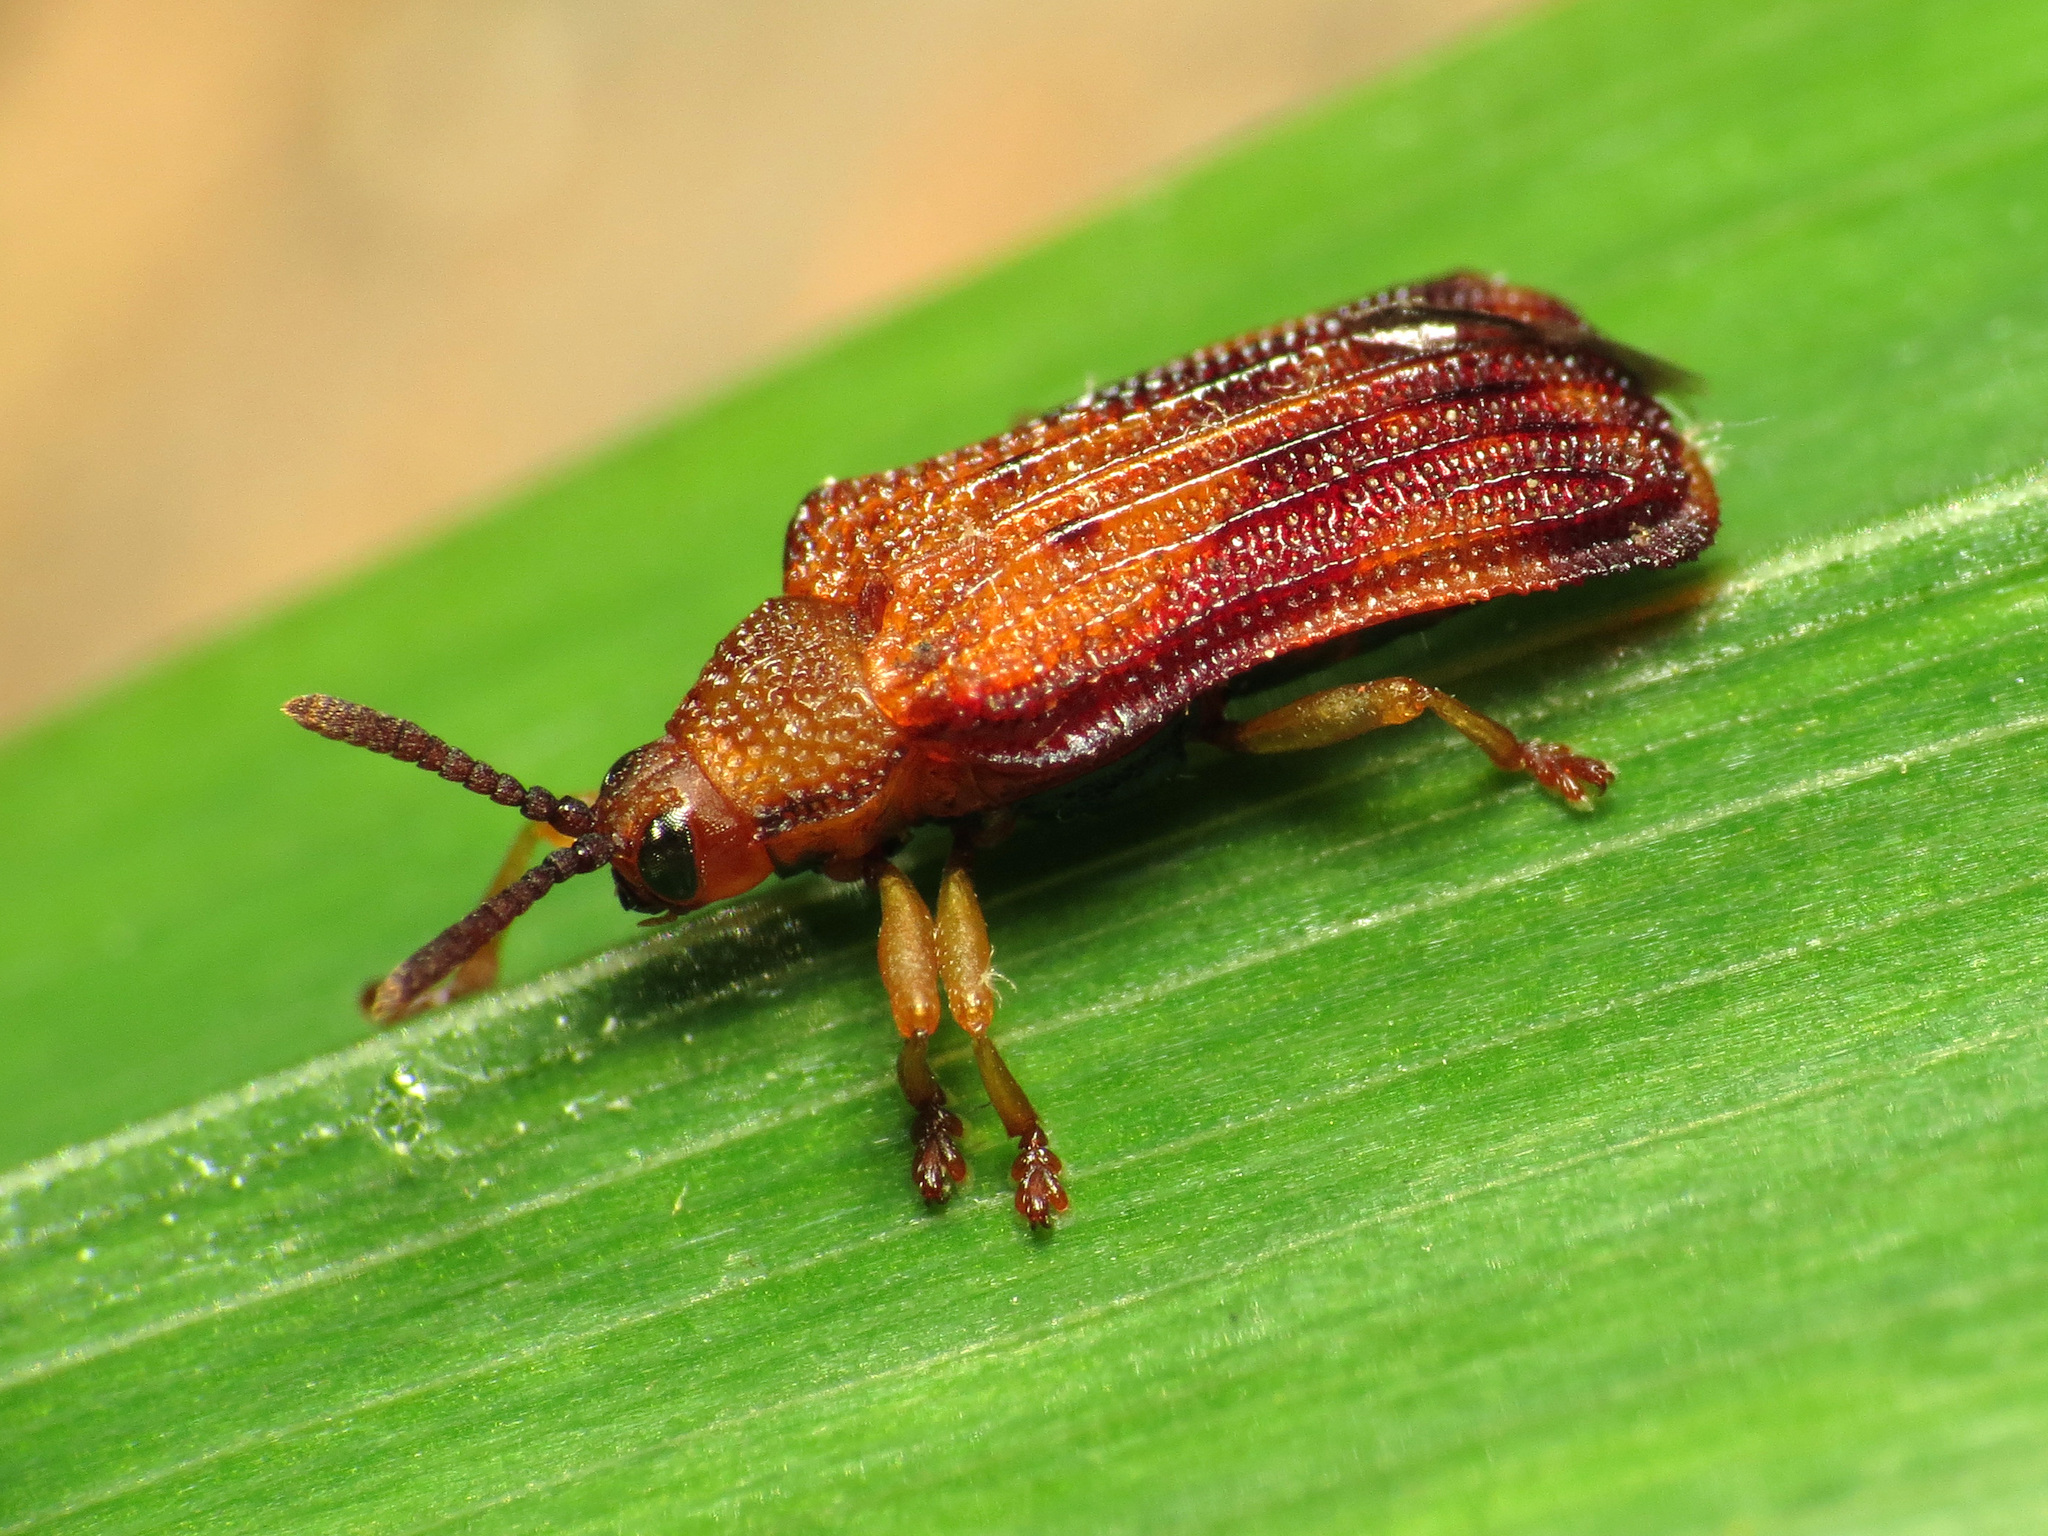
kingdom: Animalia
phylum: Arthropoda
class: Insecta
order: Coleoptera
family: Chrysomelidae
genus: Baliosus
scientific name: Baliosus nervosus
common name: Basswood leaf miner
